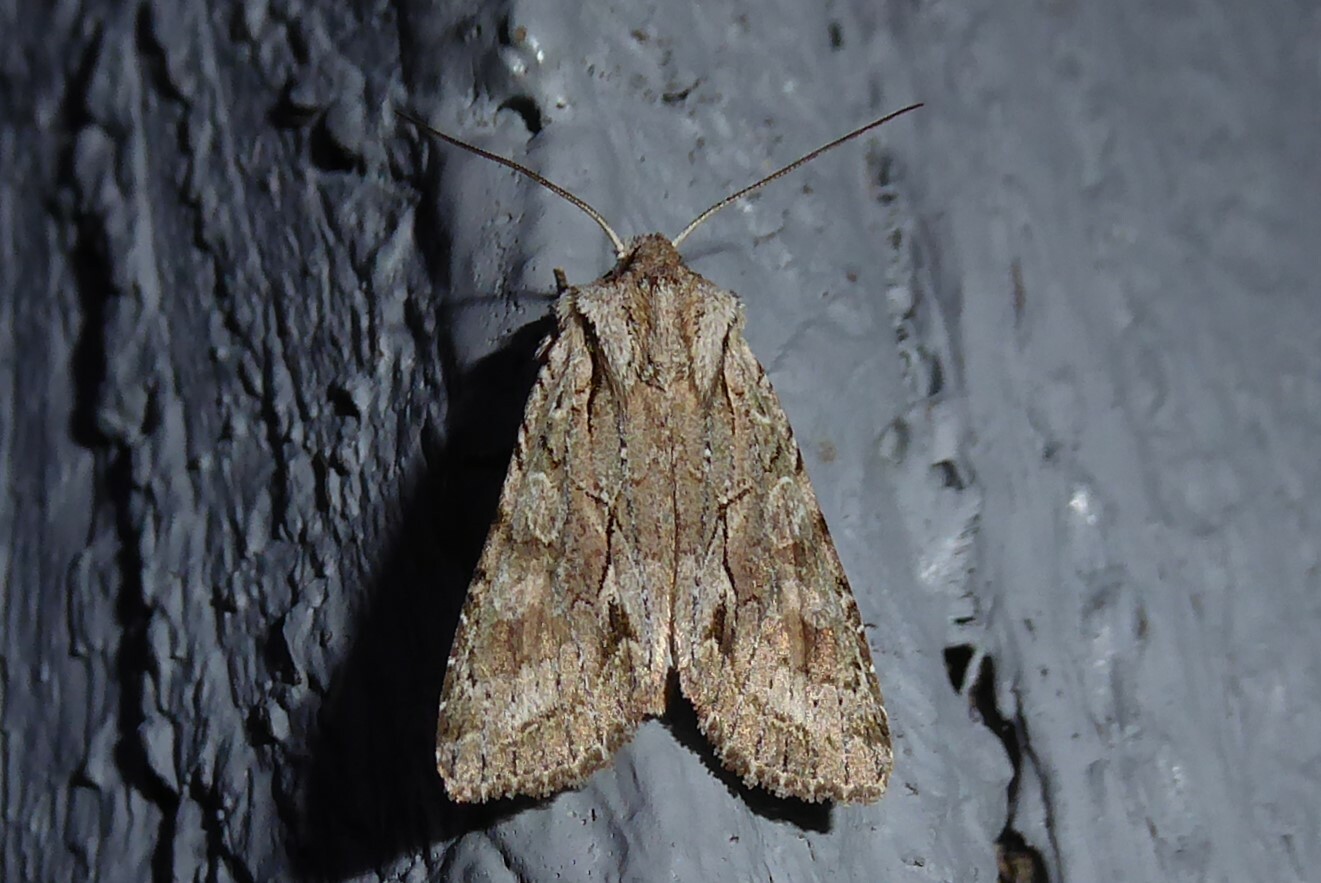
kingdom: Animalia
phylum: Arthropoda
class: Insecta
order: Lepidoptera
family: Noctuidae
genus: Ichneutica
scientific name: Ichneutica mutans
